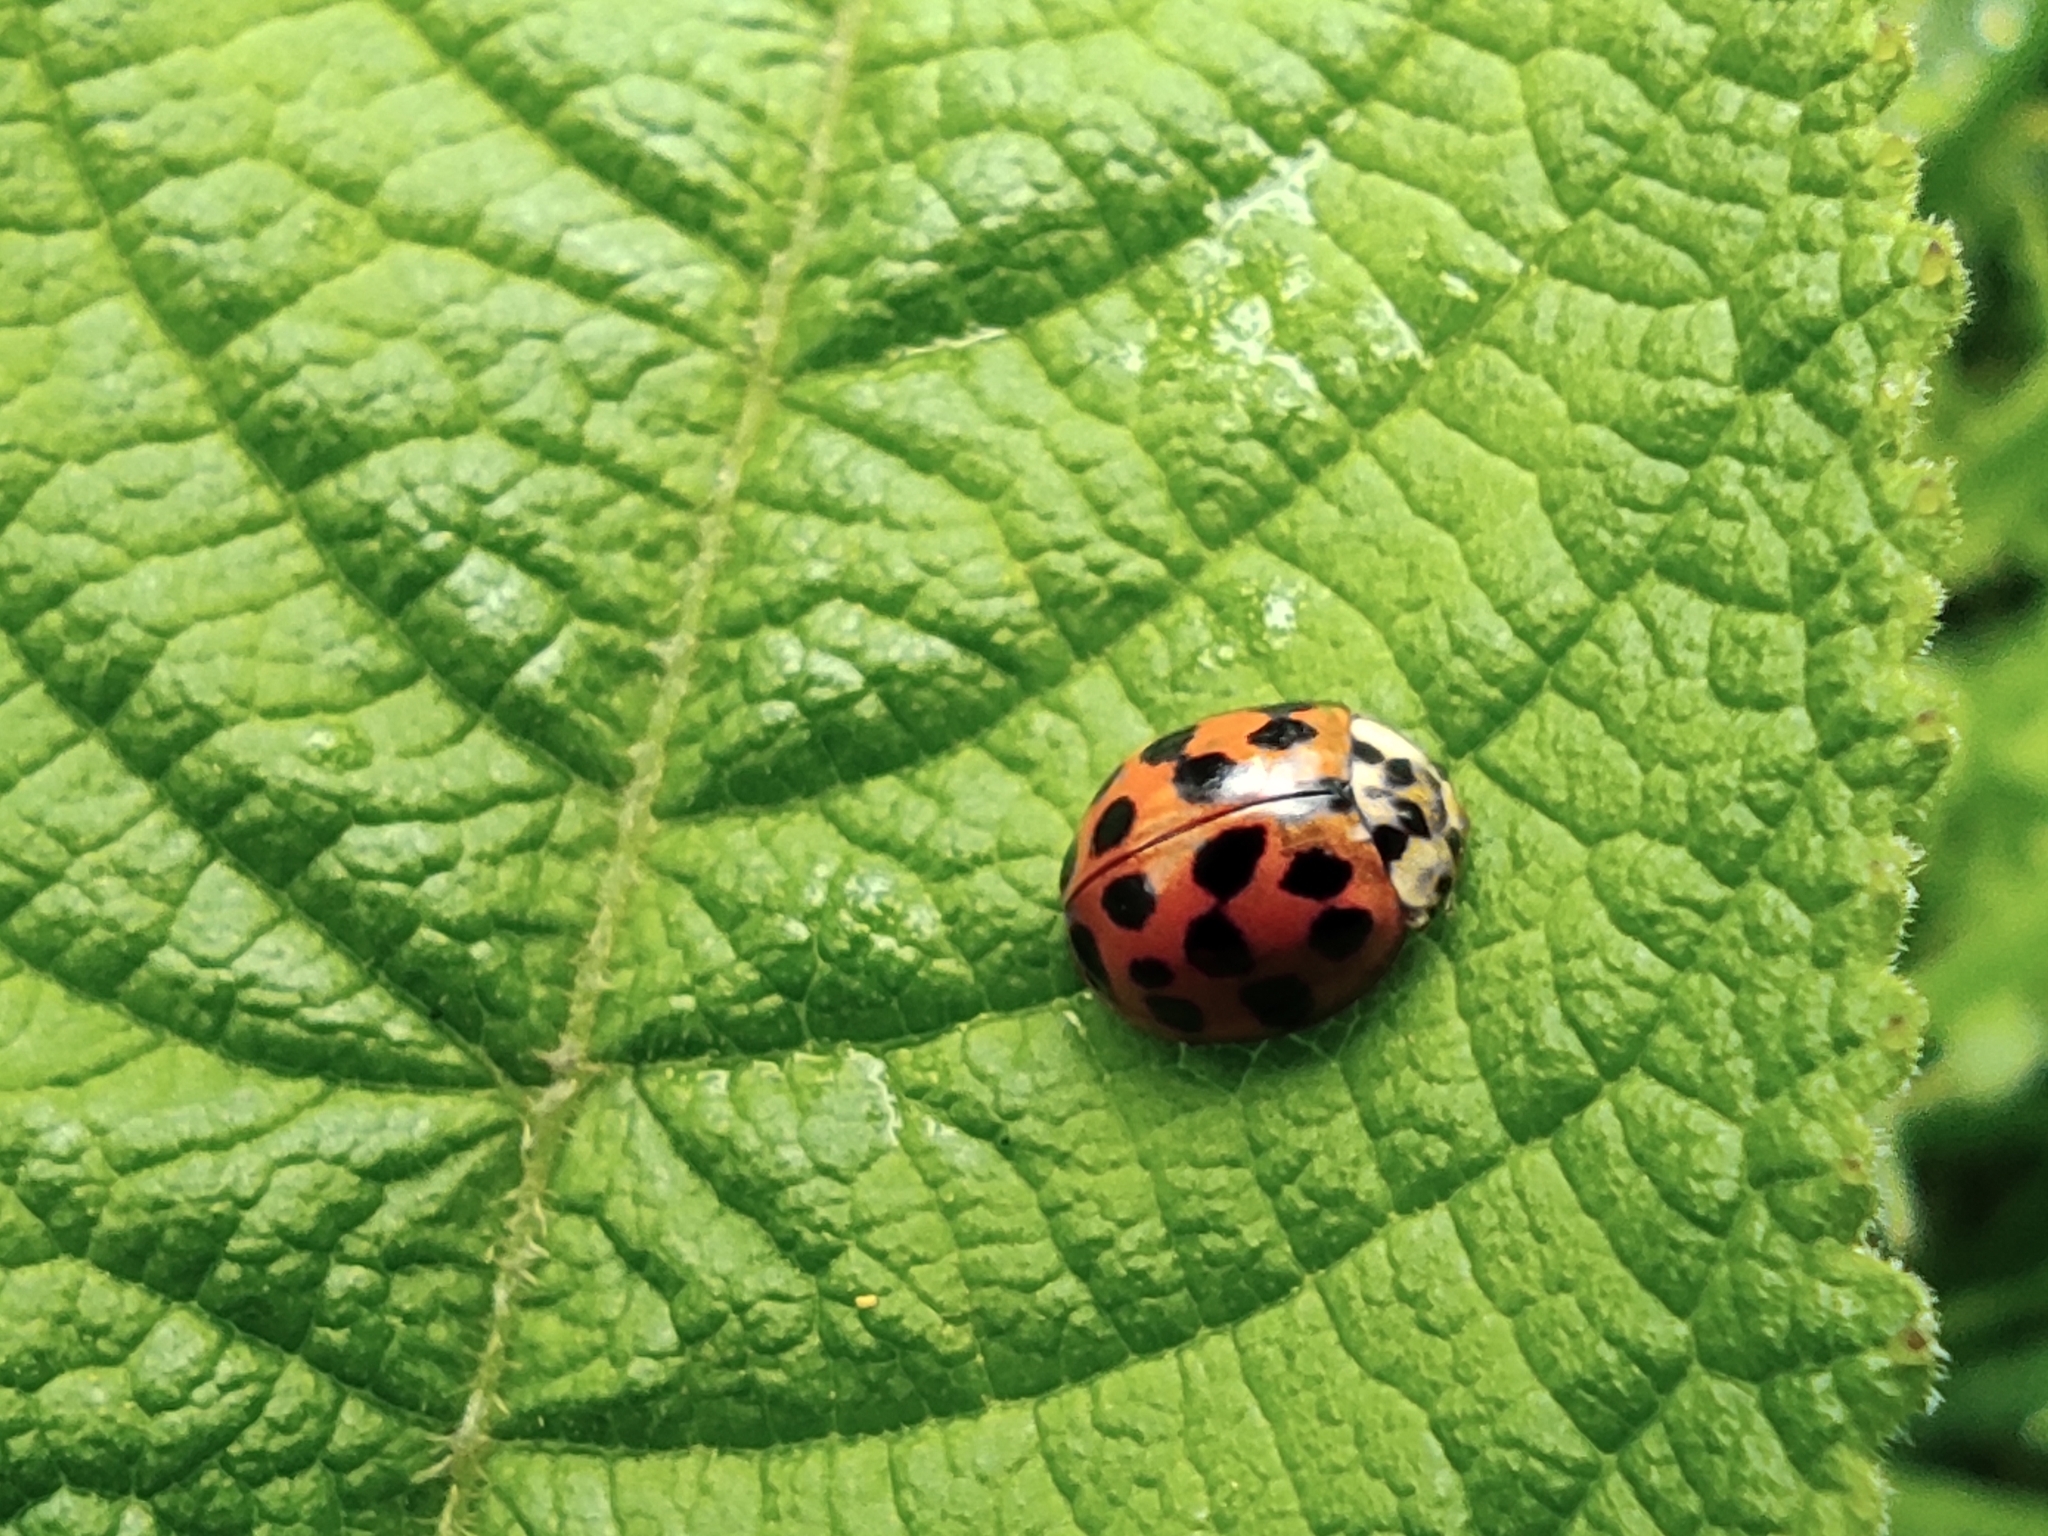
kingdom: Animalia
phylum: Arthropoda
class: Insecta
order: Coleoptera
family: Coccinellidae
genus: Harmonia
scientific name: Harmonia axyridis
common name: Harlequin ladybird
